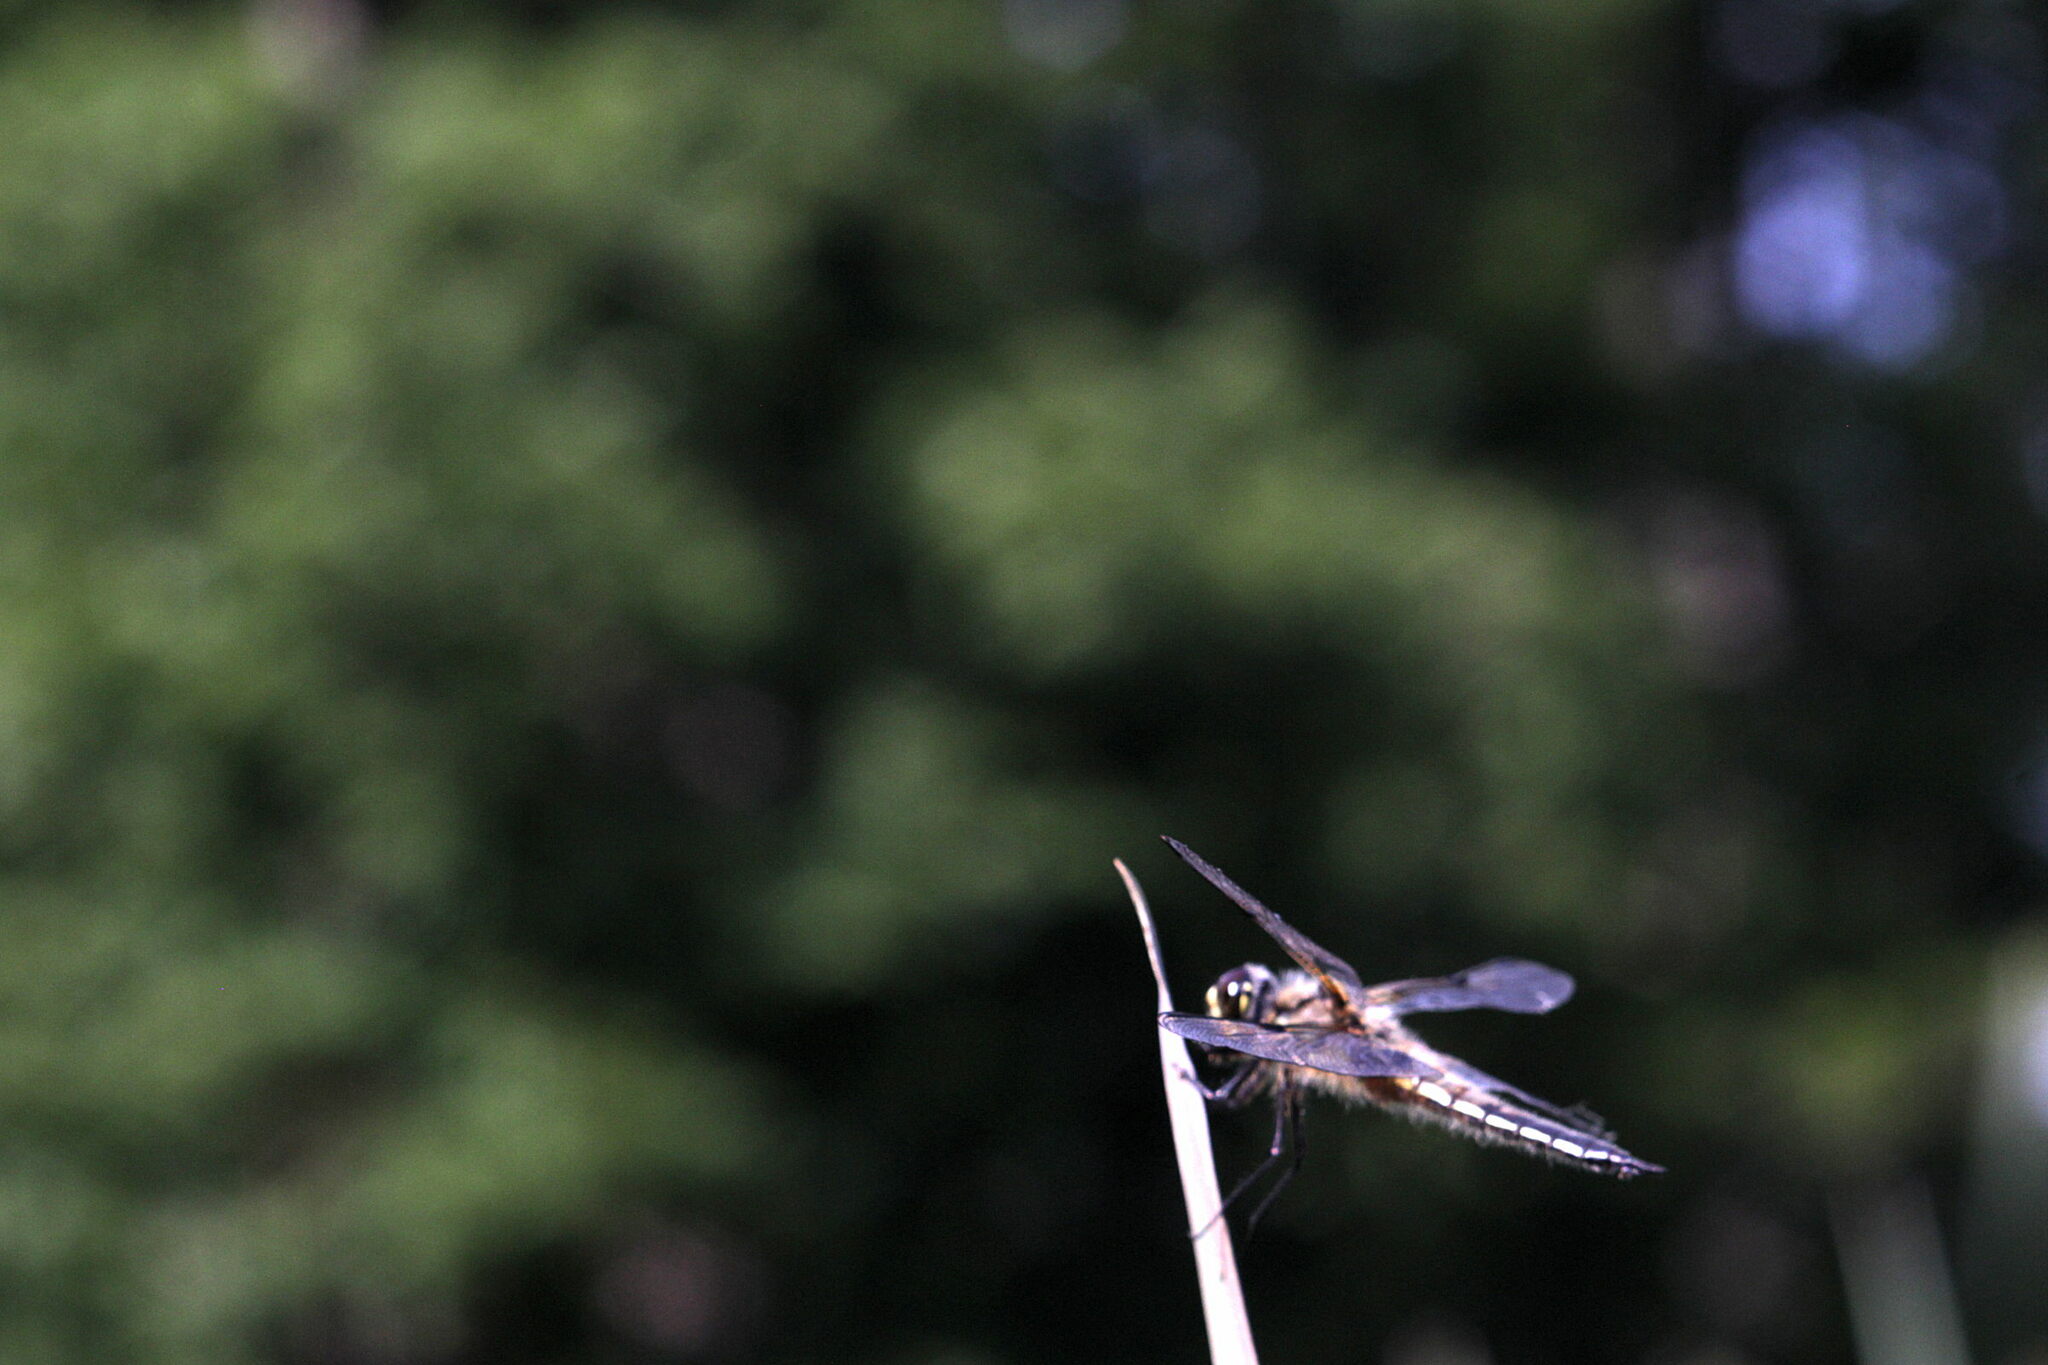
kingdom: Animalia
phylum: Arthropoda
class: Insecta
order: Odonata
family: Libellulidae
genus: Libellula
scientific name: Libellula quadrimaculata
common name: Four-spotted chaser
